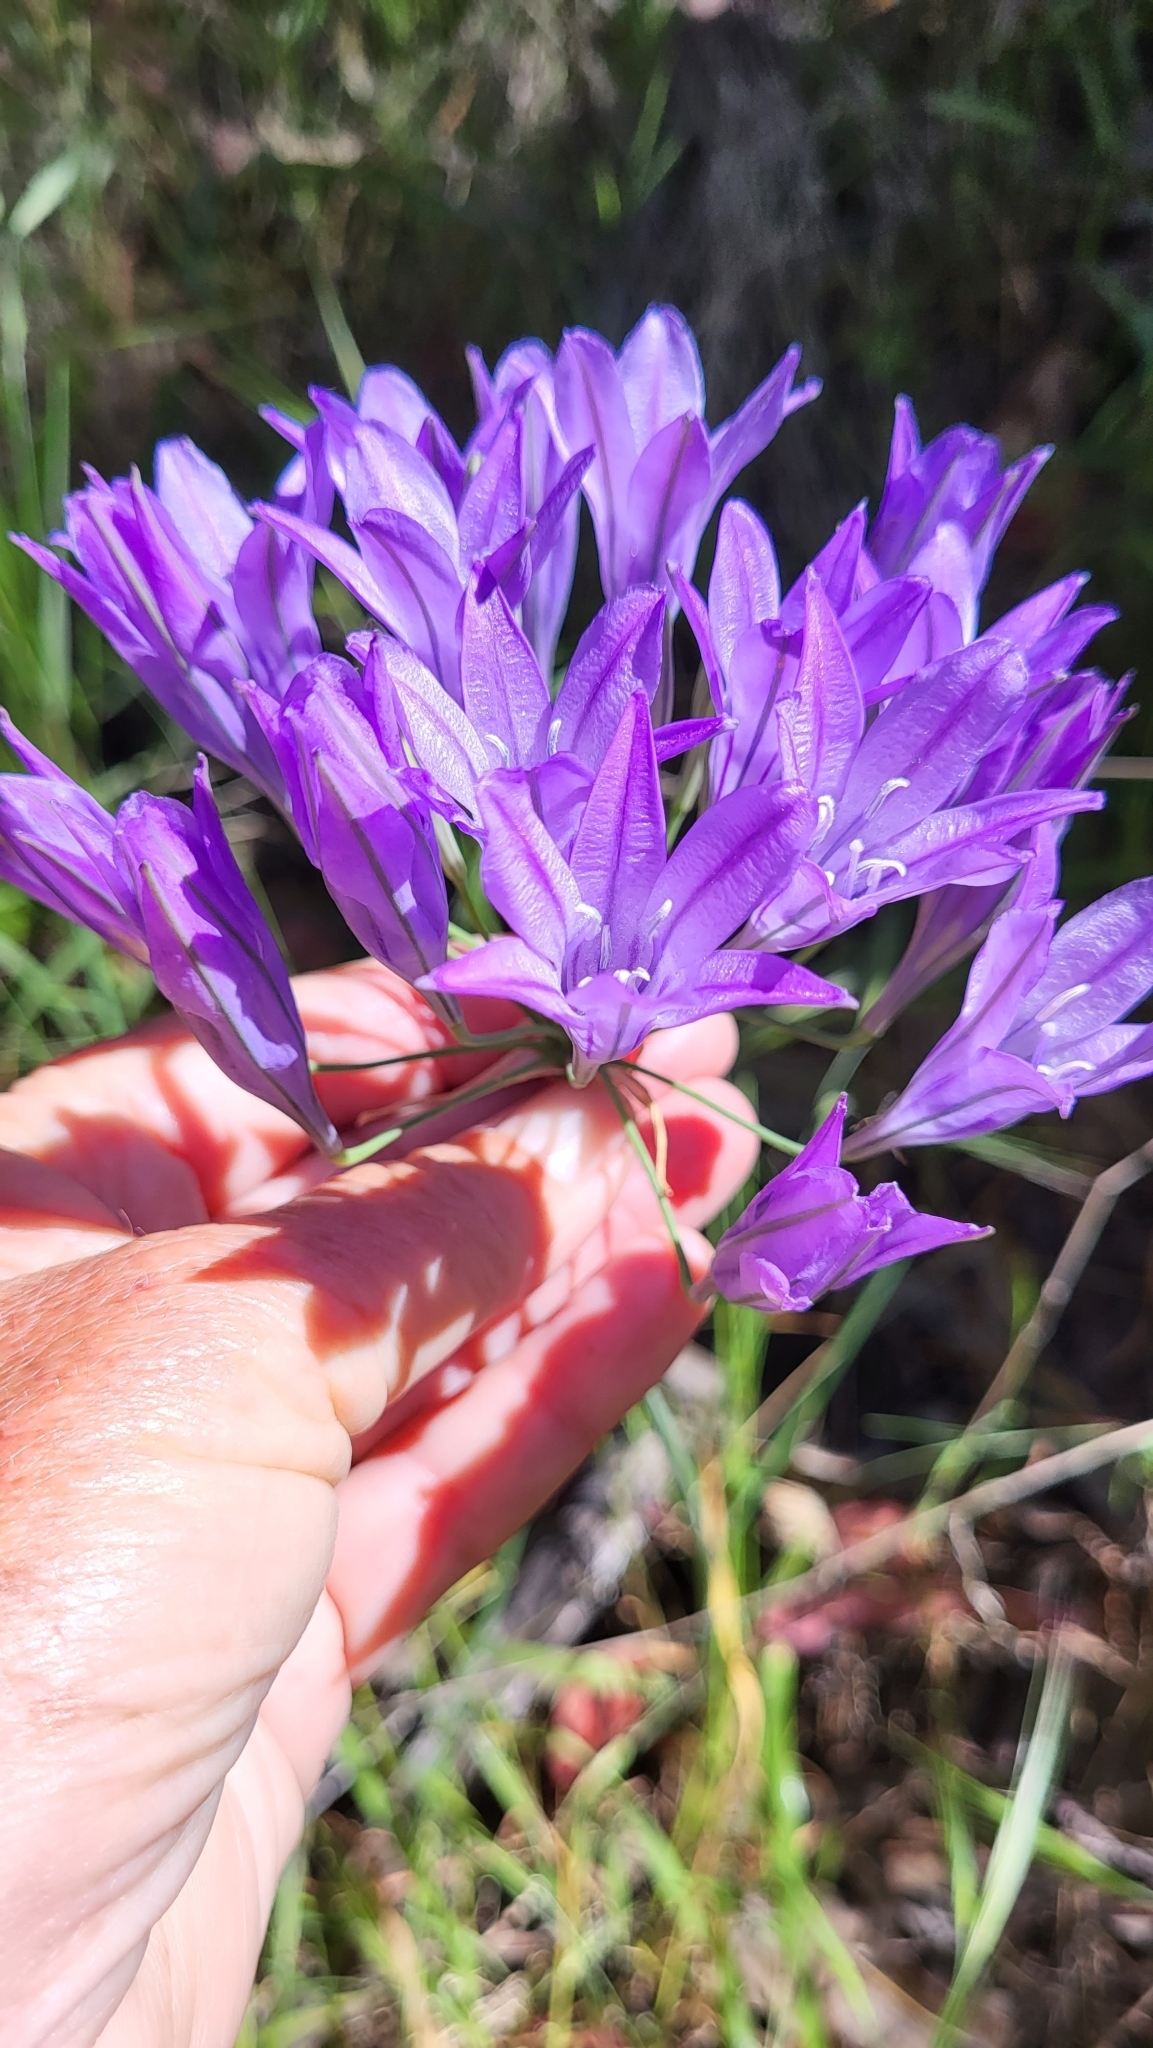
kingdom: Plantae
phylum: Tracheophyta
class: Liliopsida
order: Asparagales
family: Asparagaceae
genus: Triteleia
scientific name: Triteleia laxa
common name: Triplet-lily
